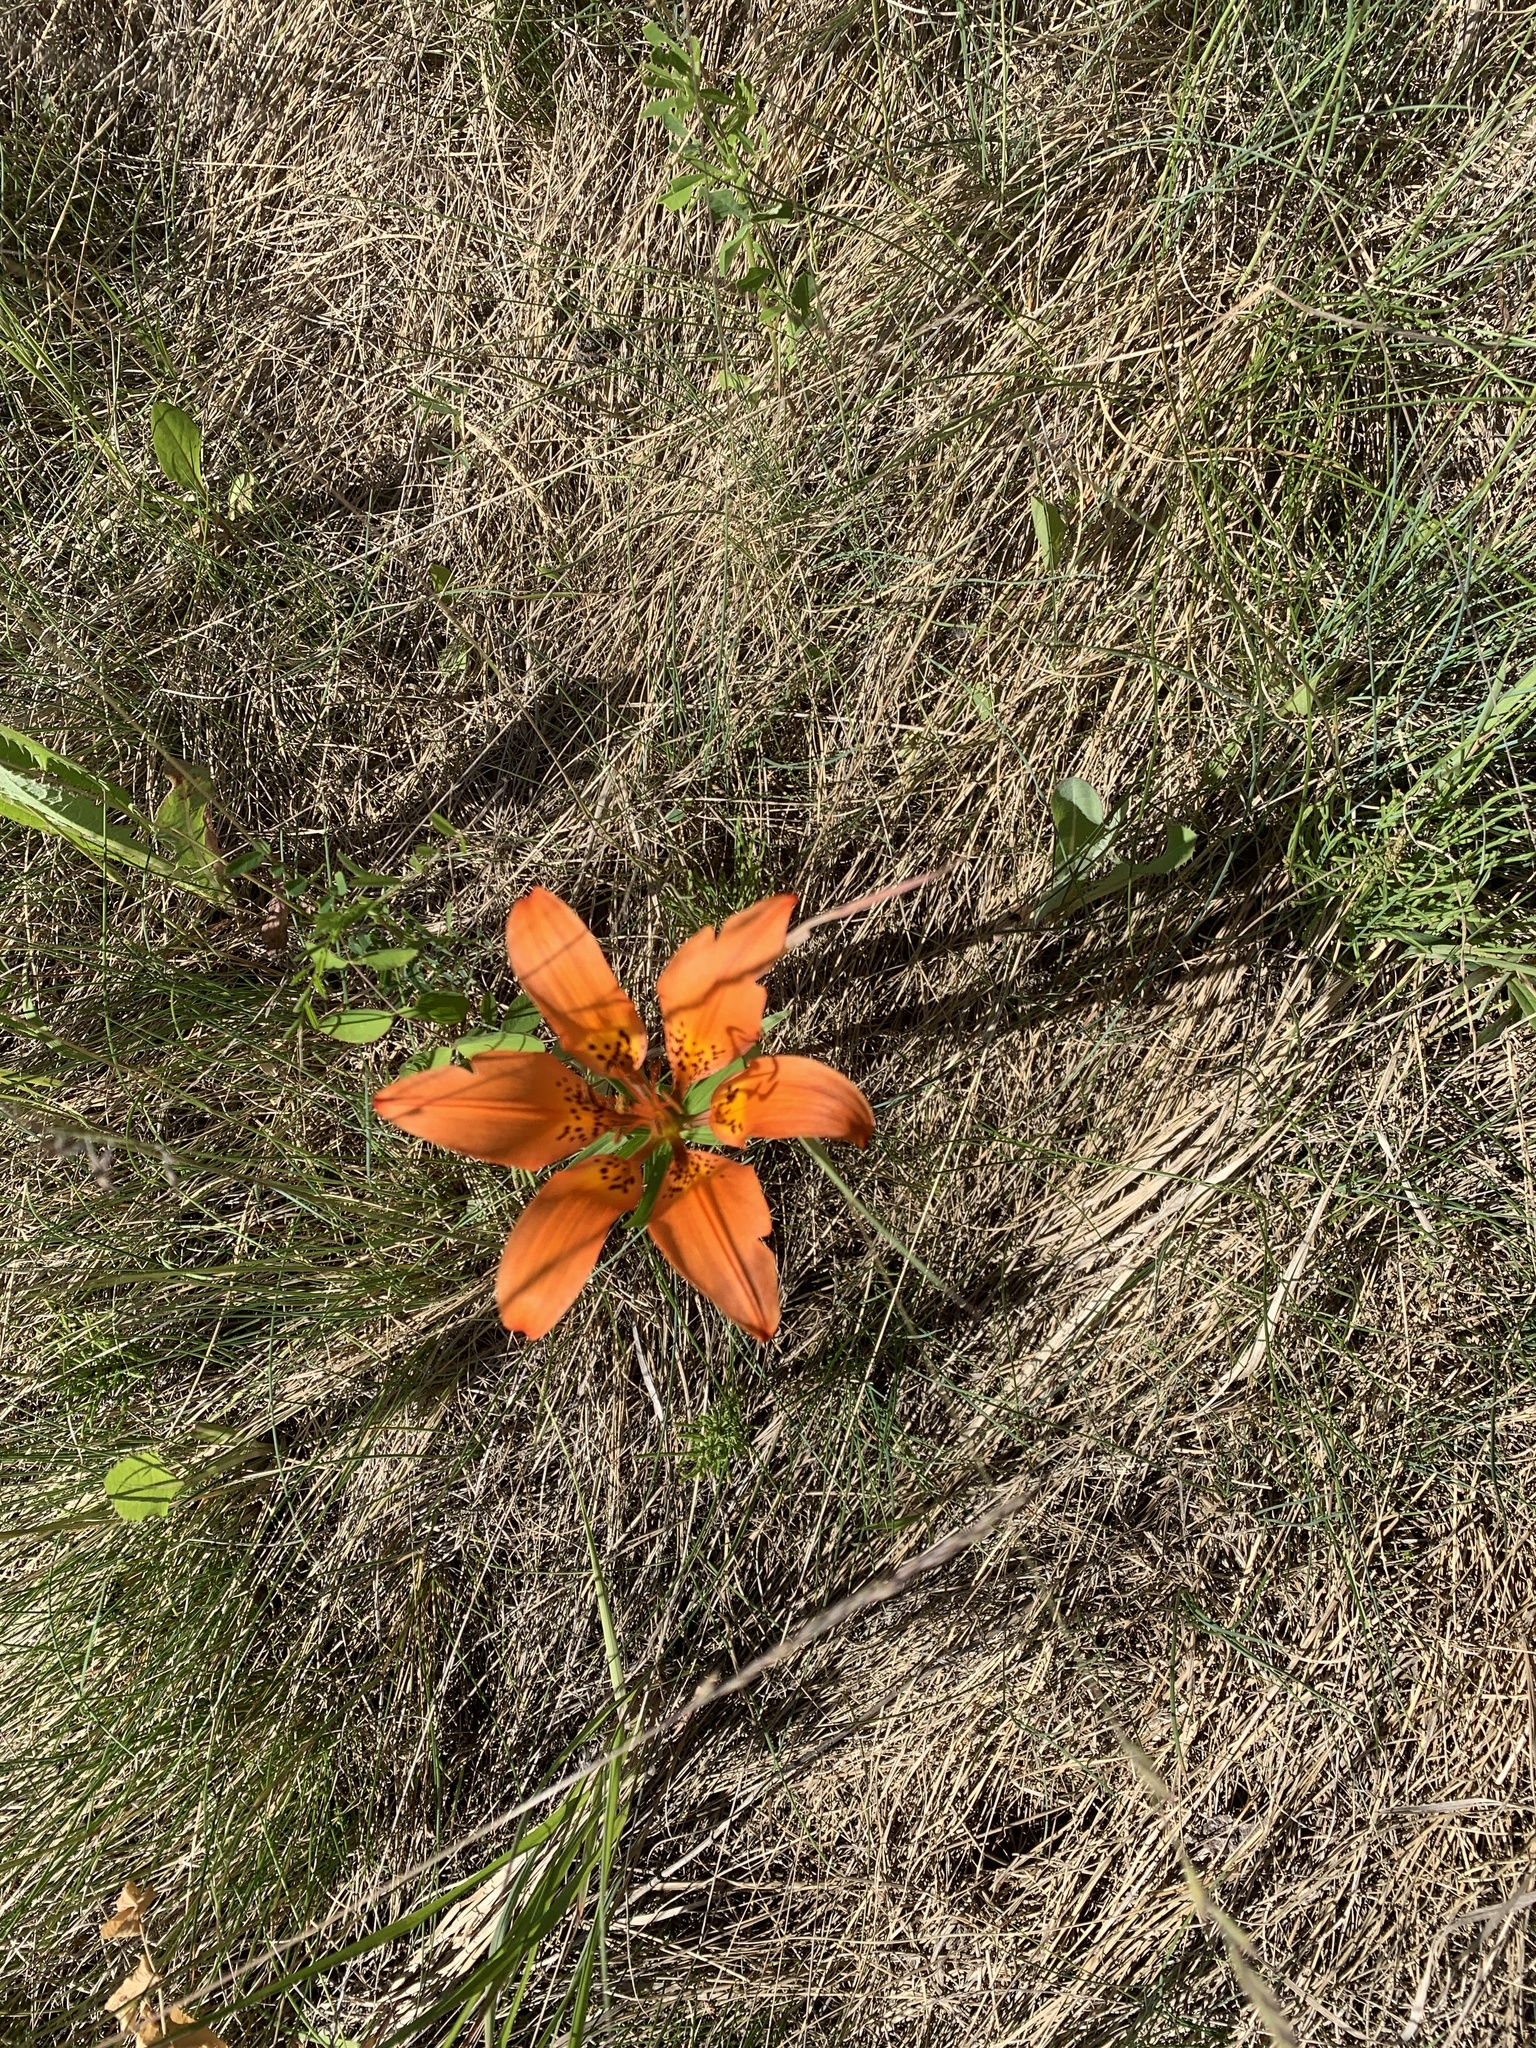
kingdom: Plantae
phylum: Tracheophyta
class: Liliopsida
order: Liliales
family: Liliaceae
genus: Lilium
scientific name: Lilium philadelphicum
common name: Red lily
